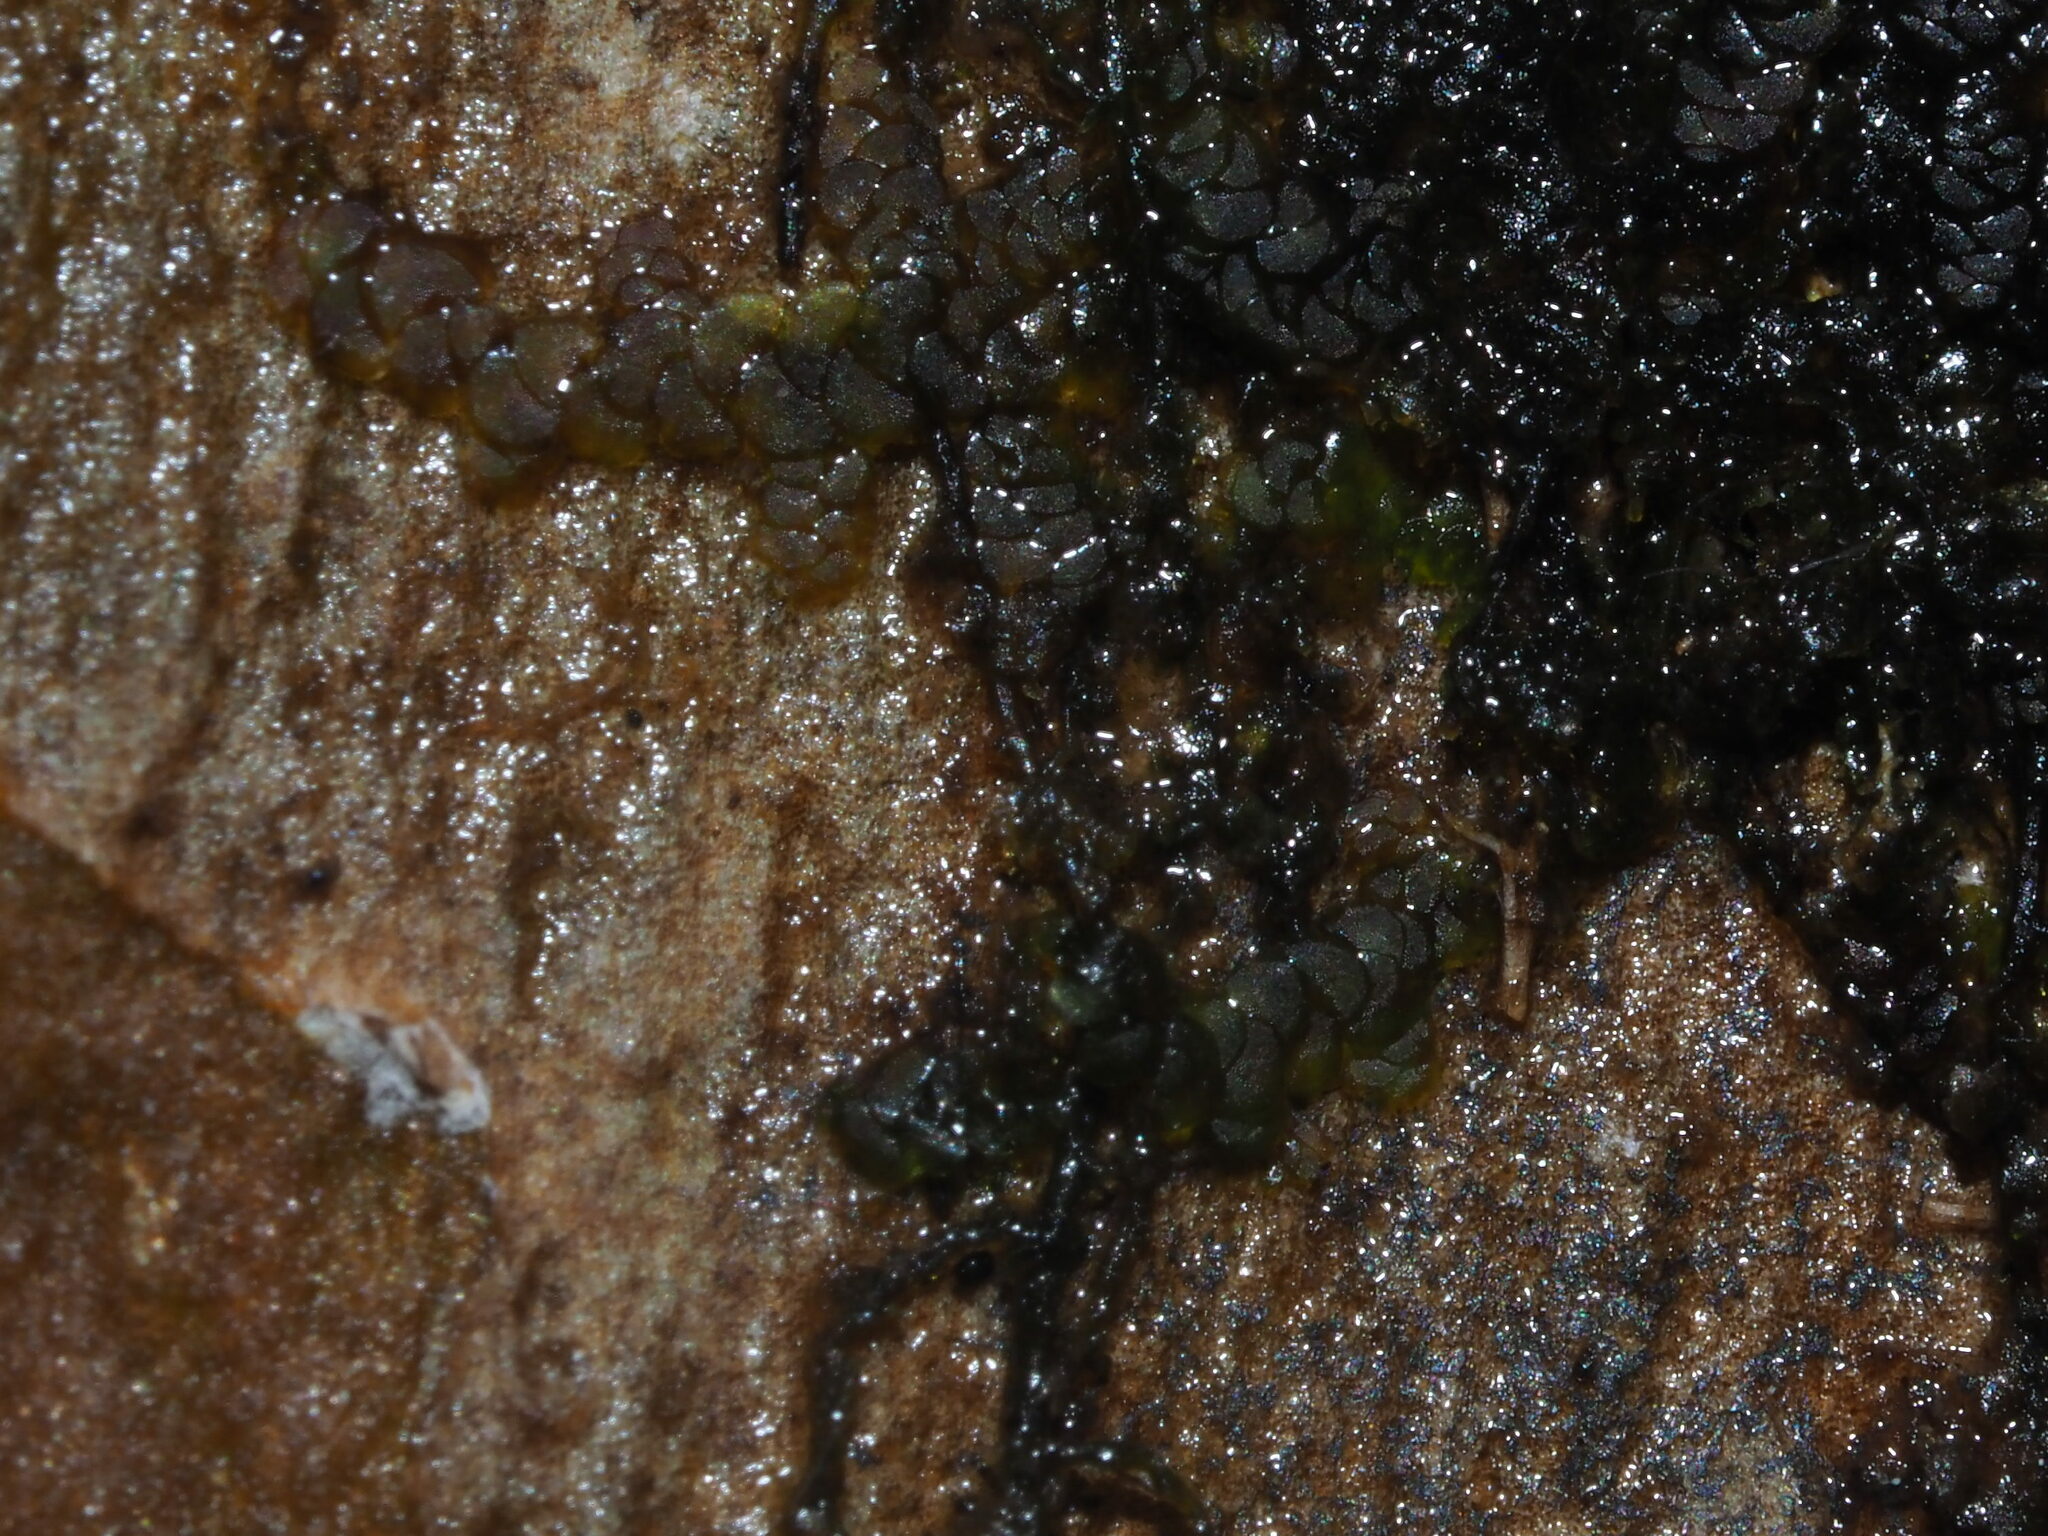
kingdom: Plantae
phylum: Marchantiophyta
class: Jungermanniopsida
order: Porellales
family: Lejeuneaceae
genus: Lopholejeunea
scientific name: Lopholejeunea nigricans
